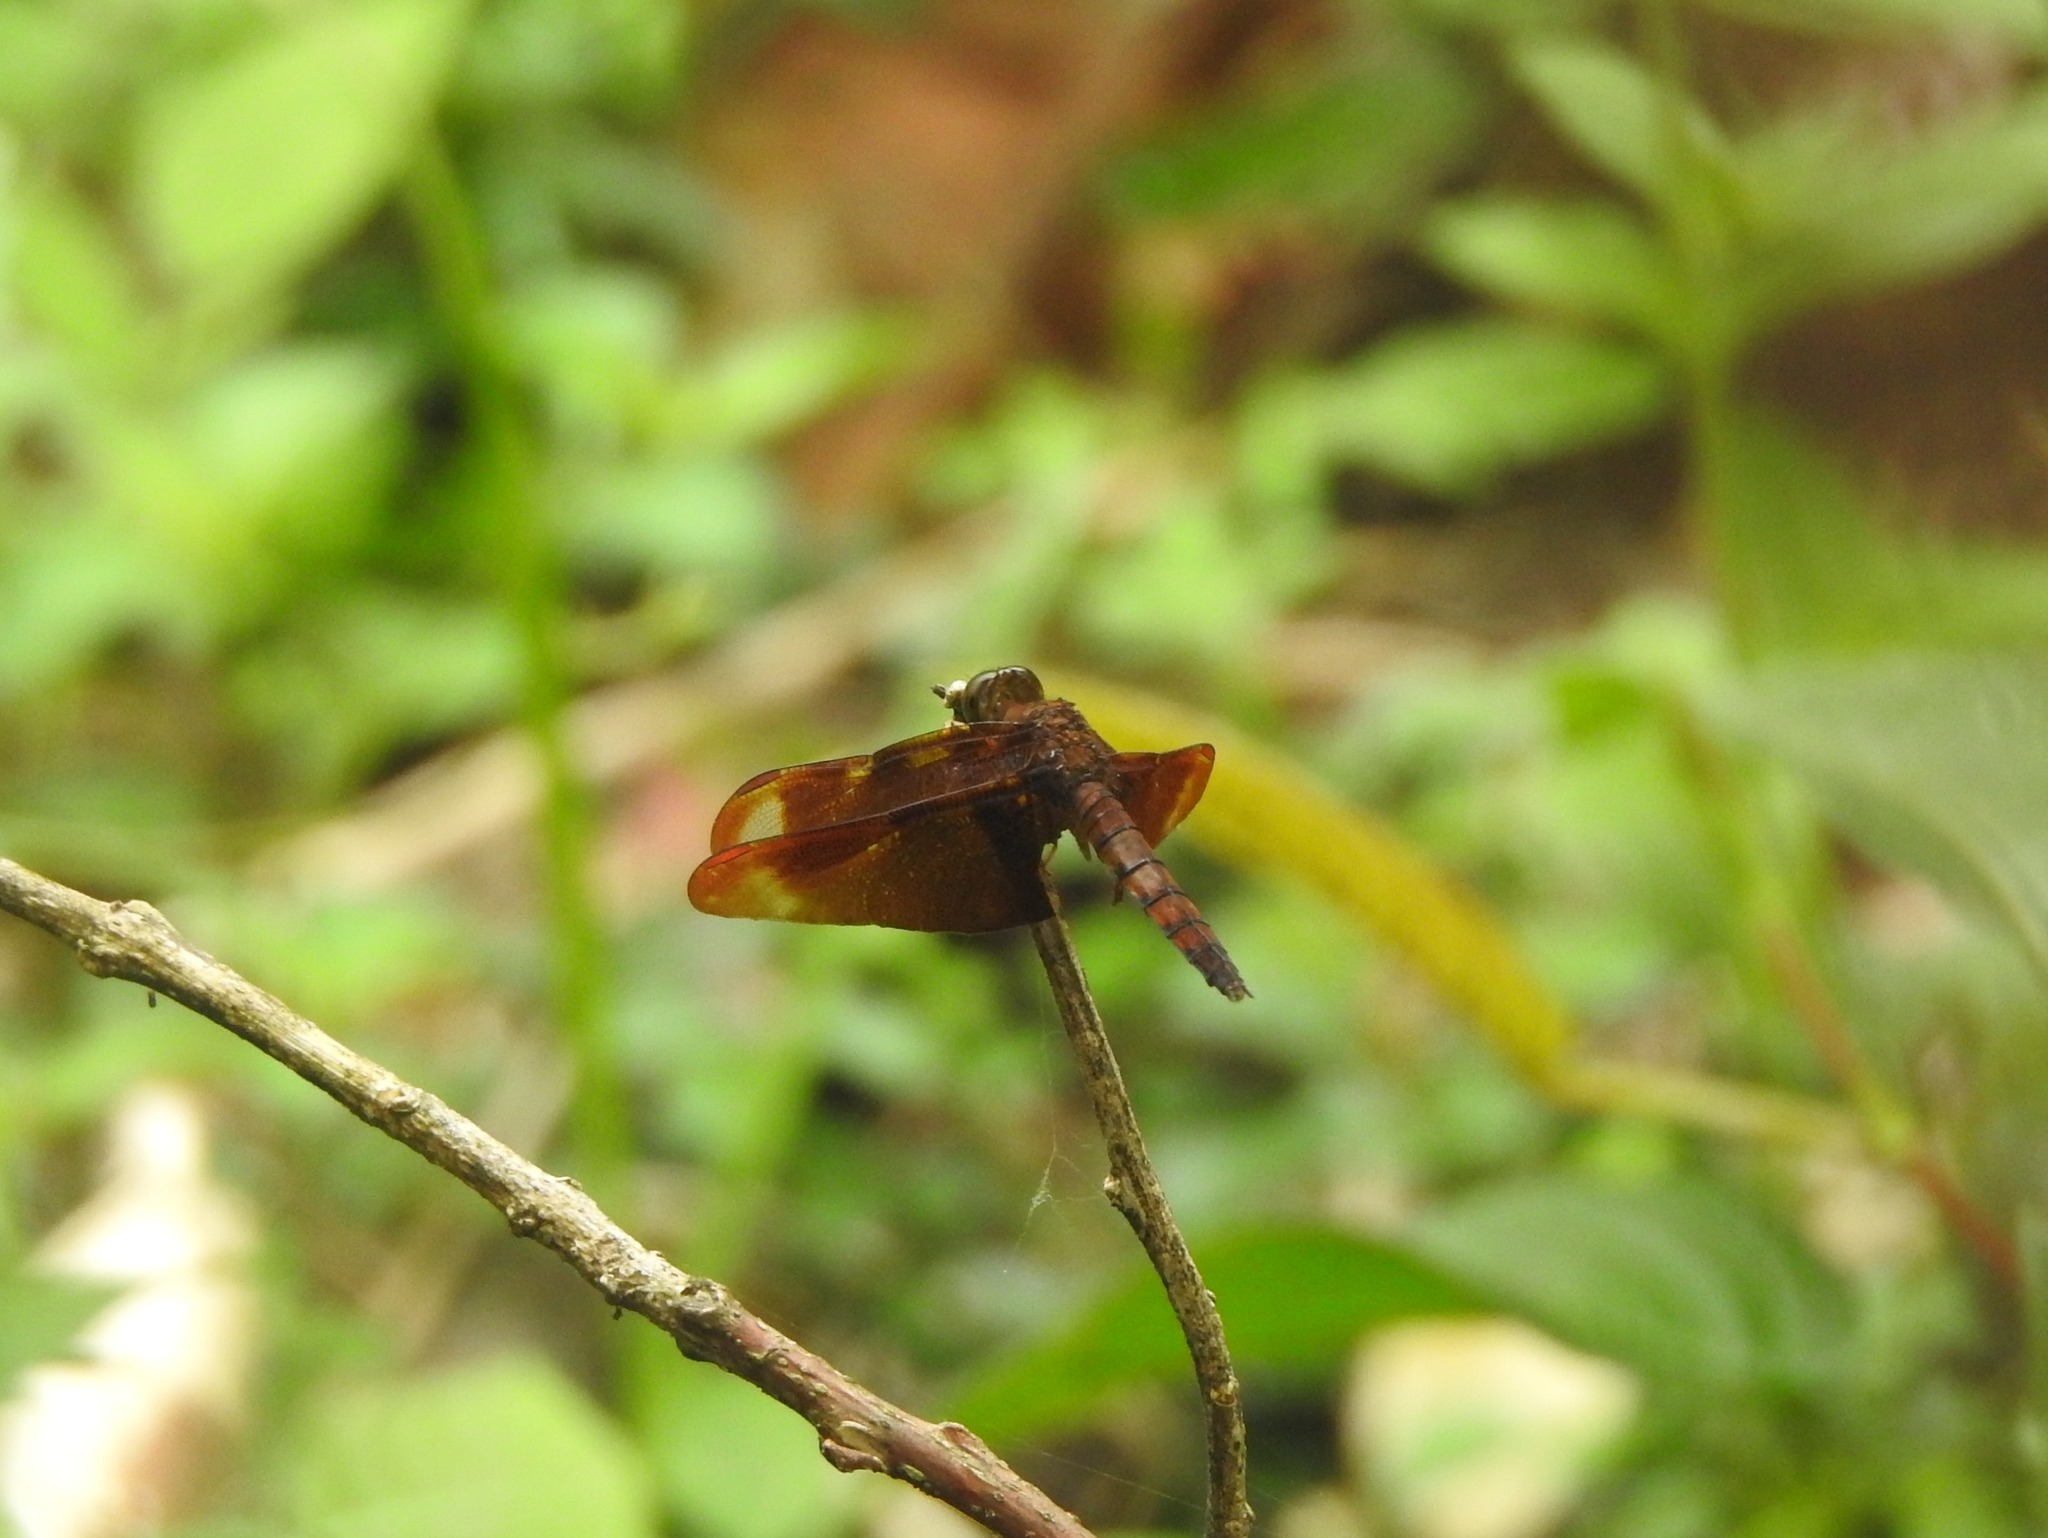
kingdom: Animalia
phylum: Arthropoda
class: Insecta
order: Odonata
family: Libellulidae
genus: Neurothemis
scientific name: Neurothemis fulvia
